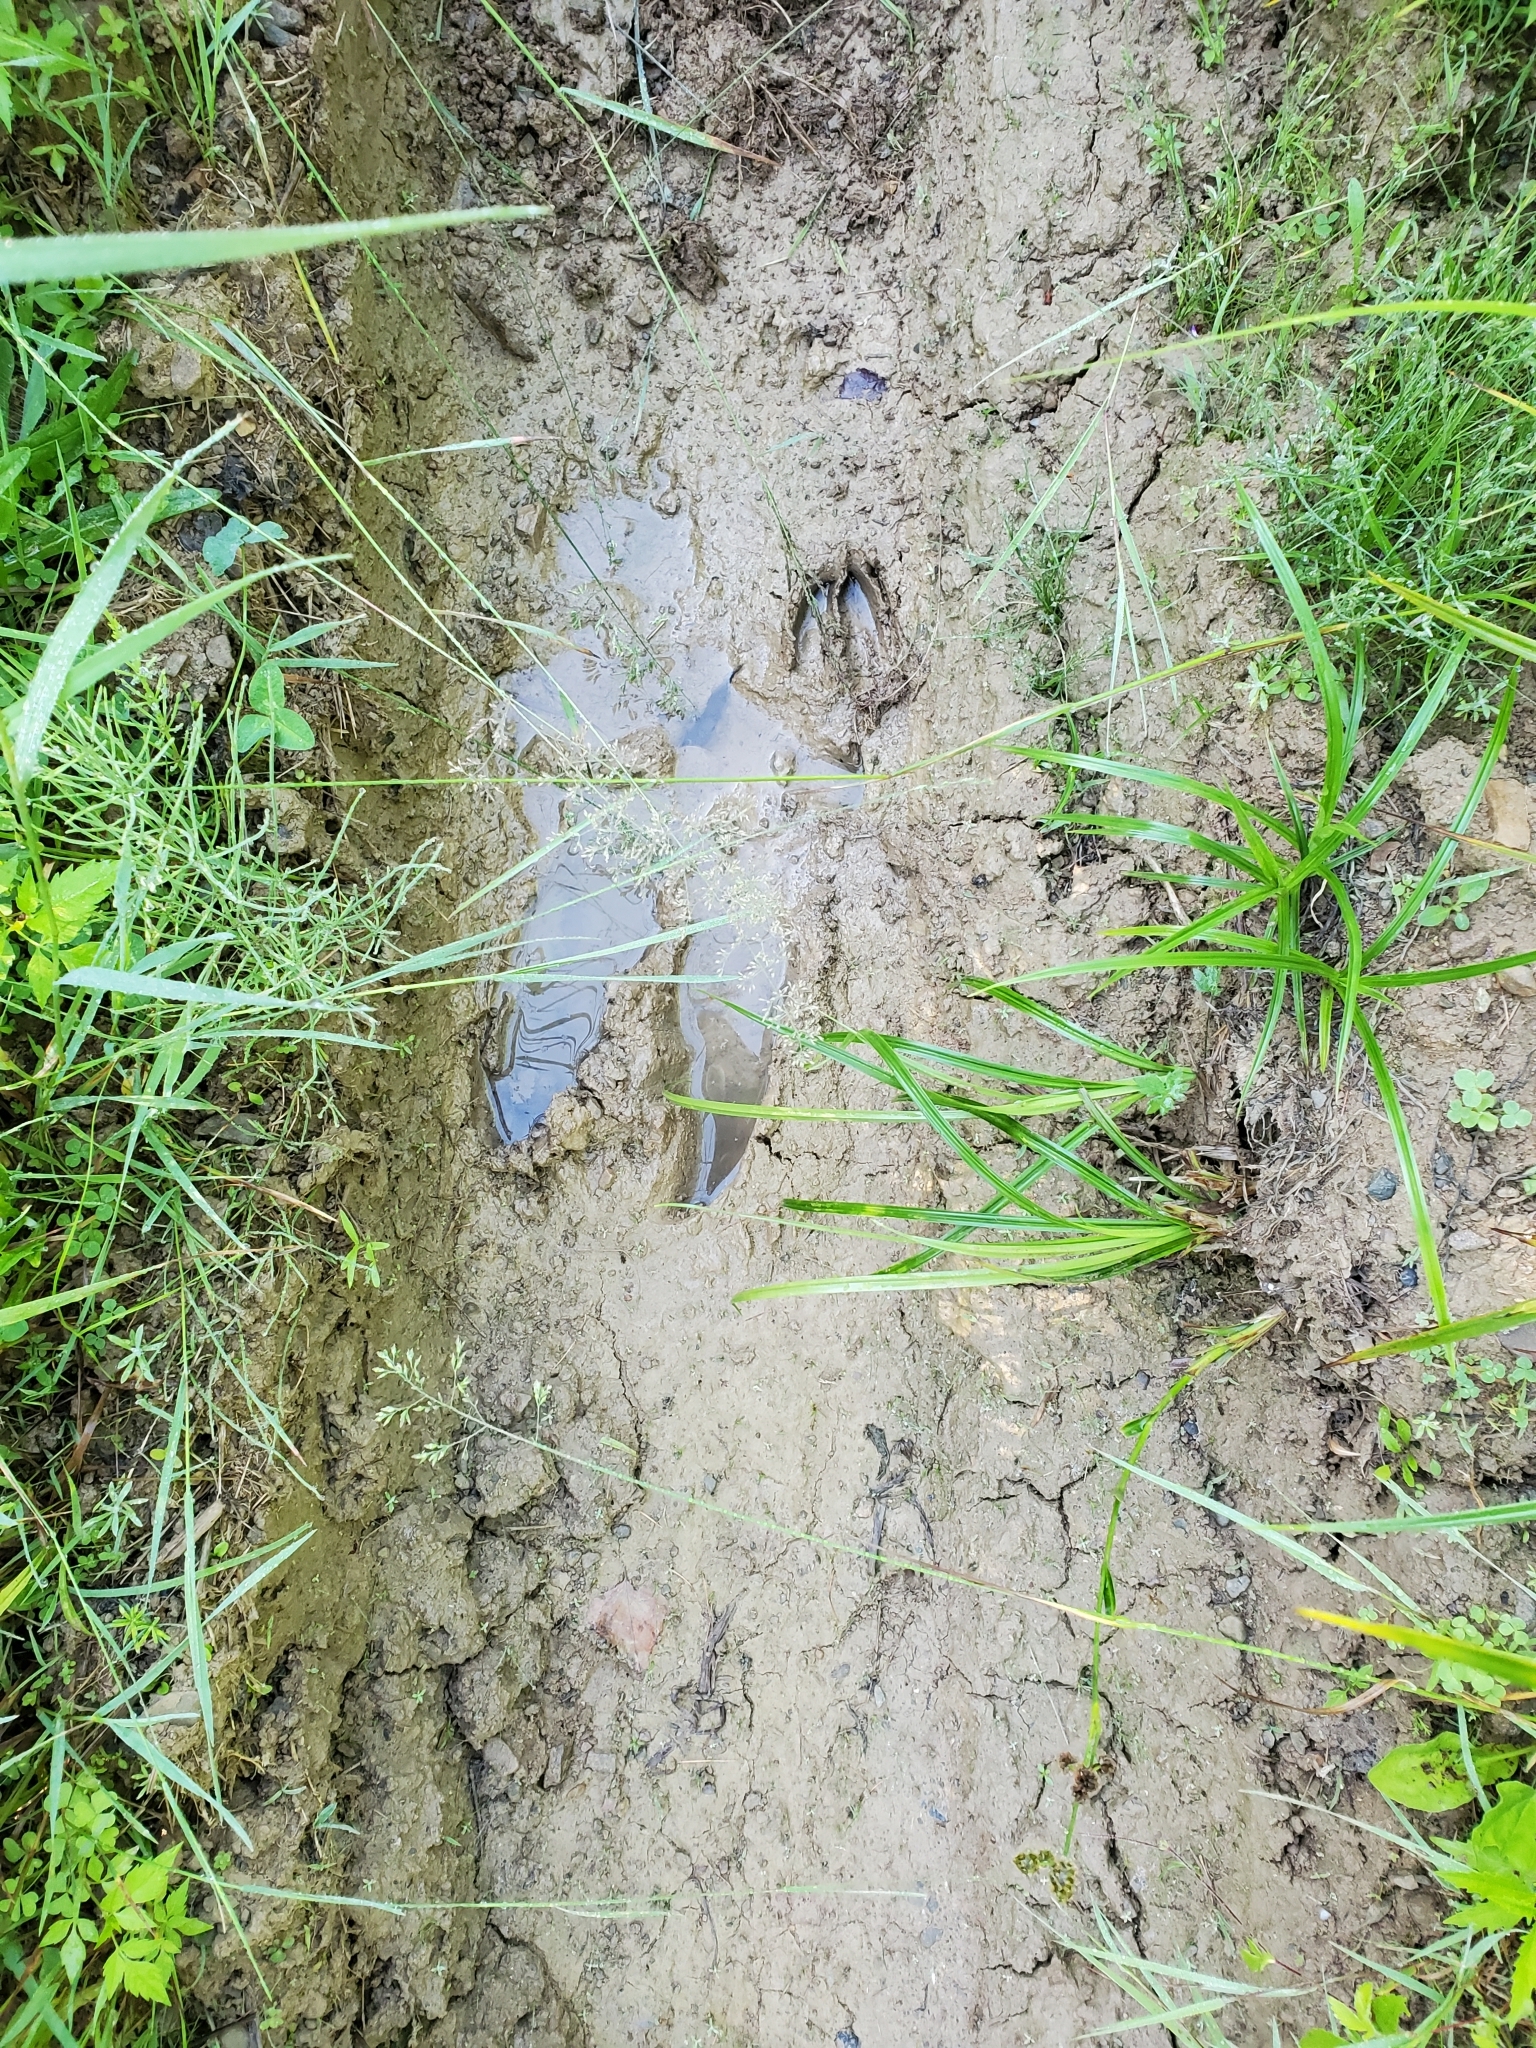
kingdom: Animalia
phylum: Chordata
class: Mammalia
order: Artiodactyla
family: Cervidae
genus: Alces
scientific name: Alces alces
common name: Moose
